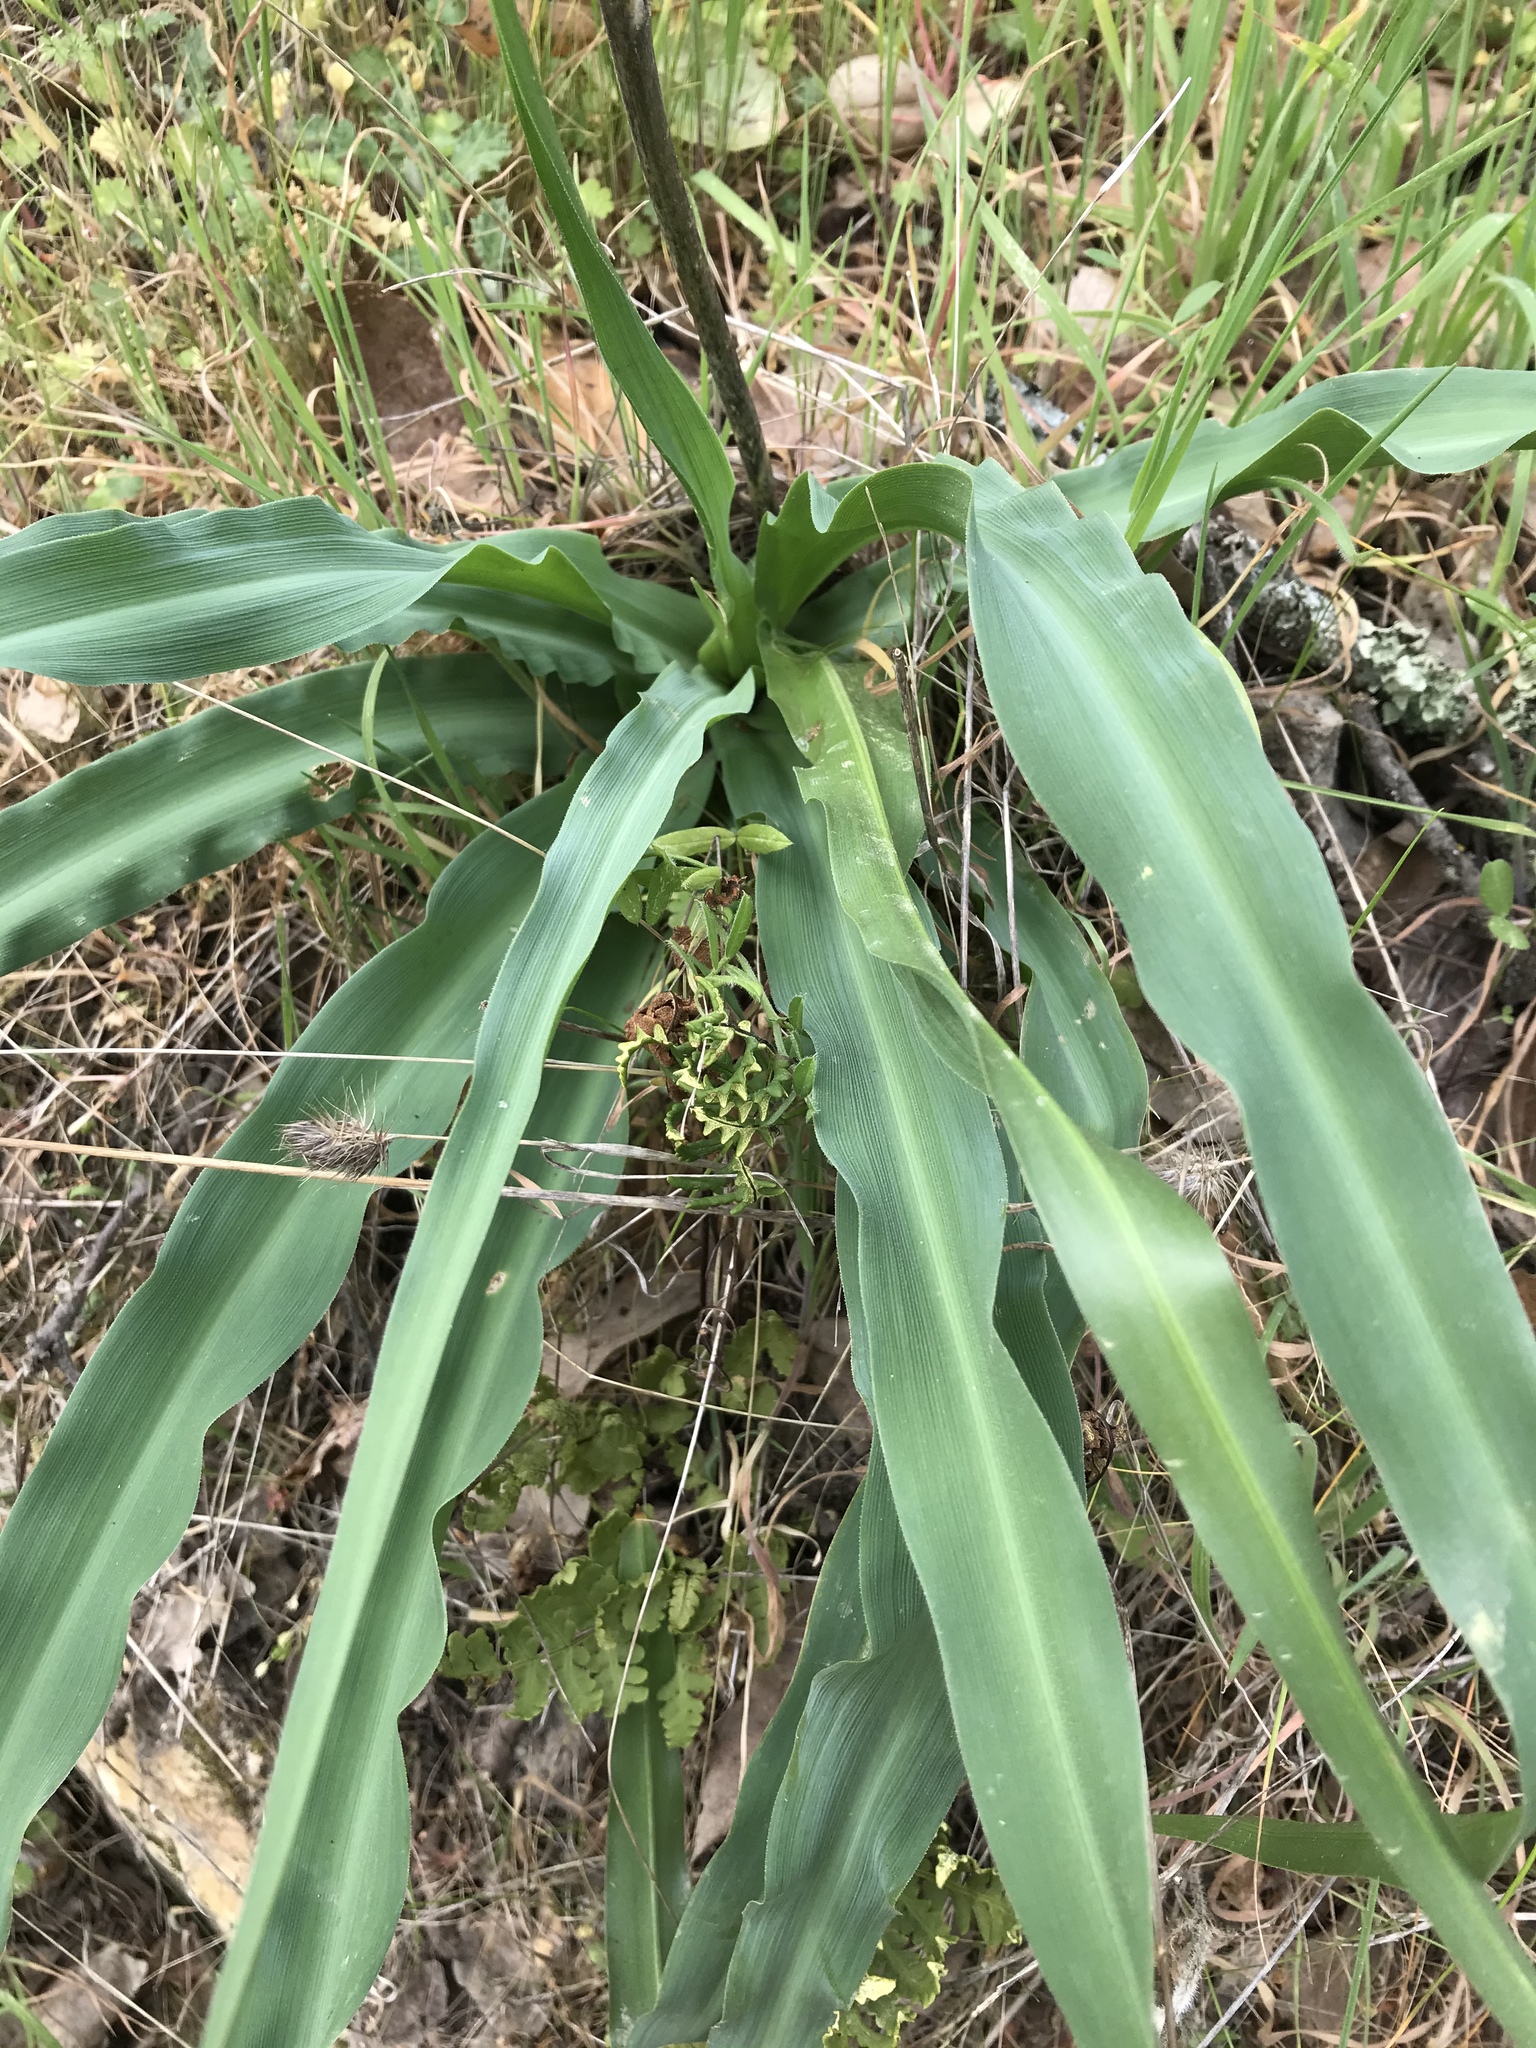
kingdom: Plantae
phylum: Tracheophyta
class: Liliopsida
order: Asparagales
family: Asparagaceae
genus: Chlorogalum
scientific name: Chlorogalum pomeridianum
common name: Amole
